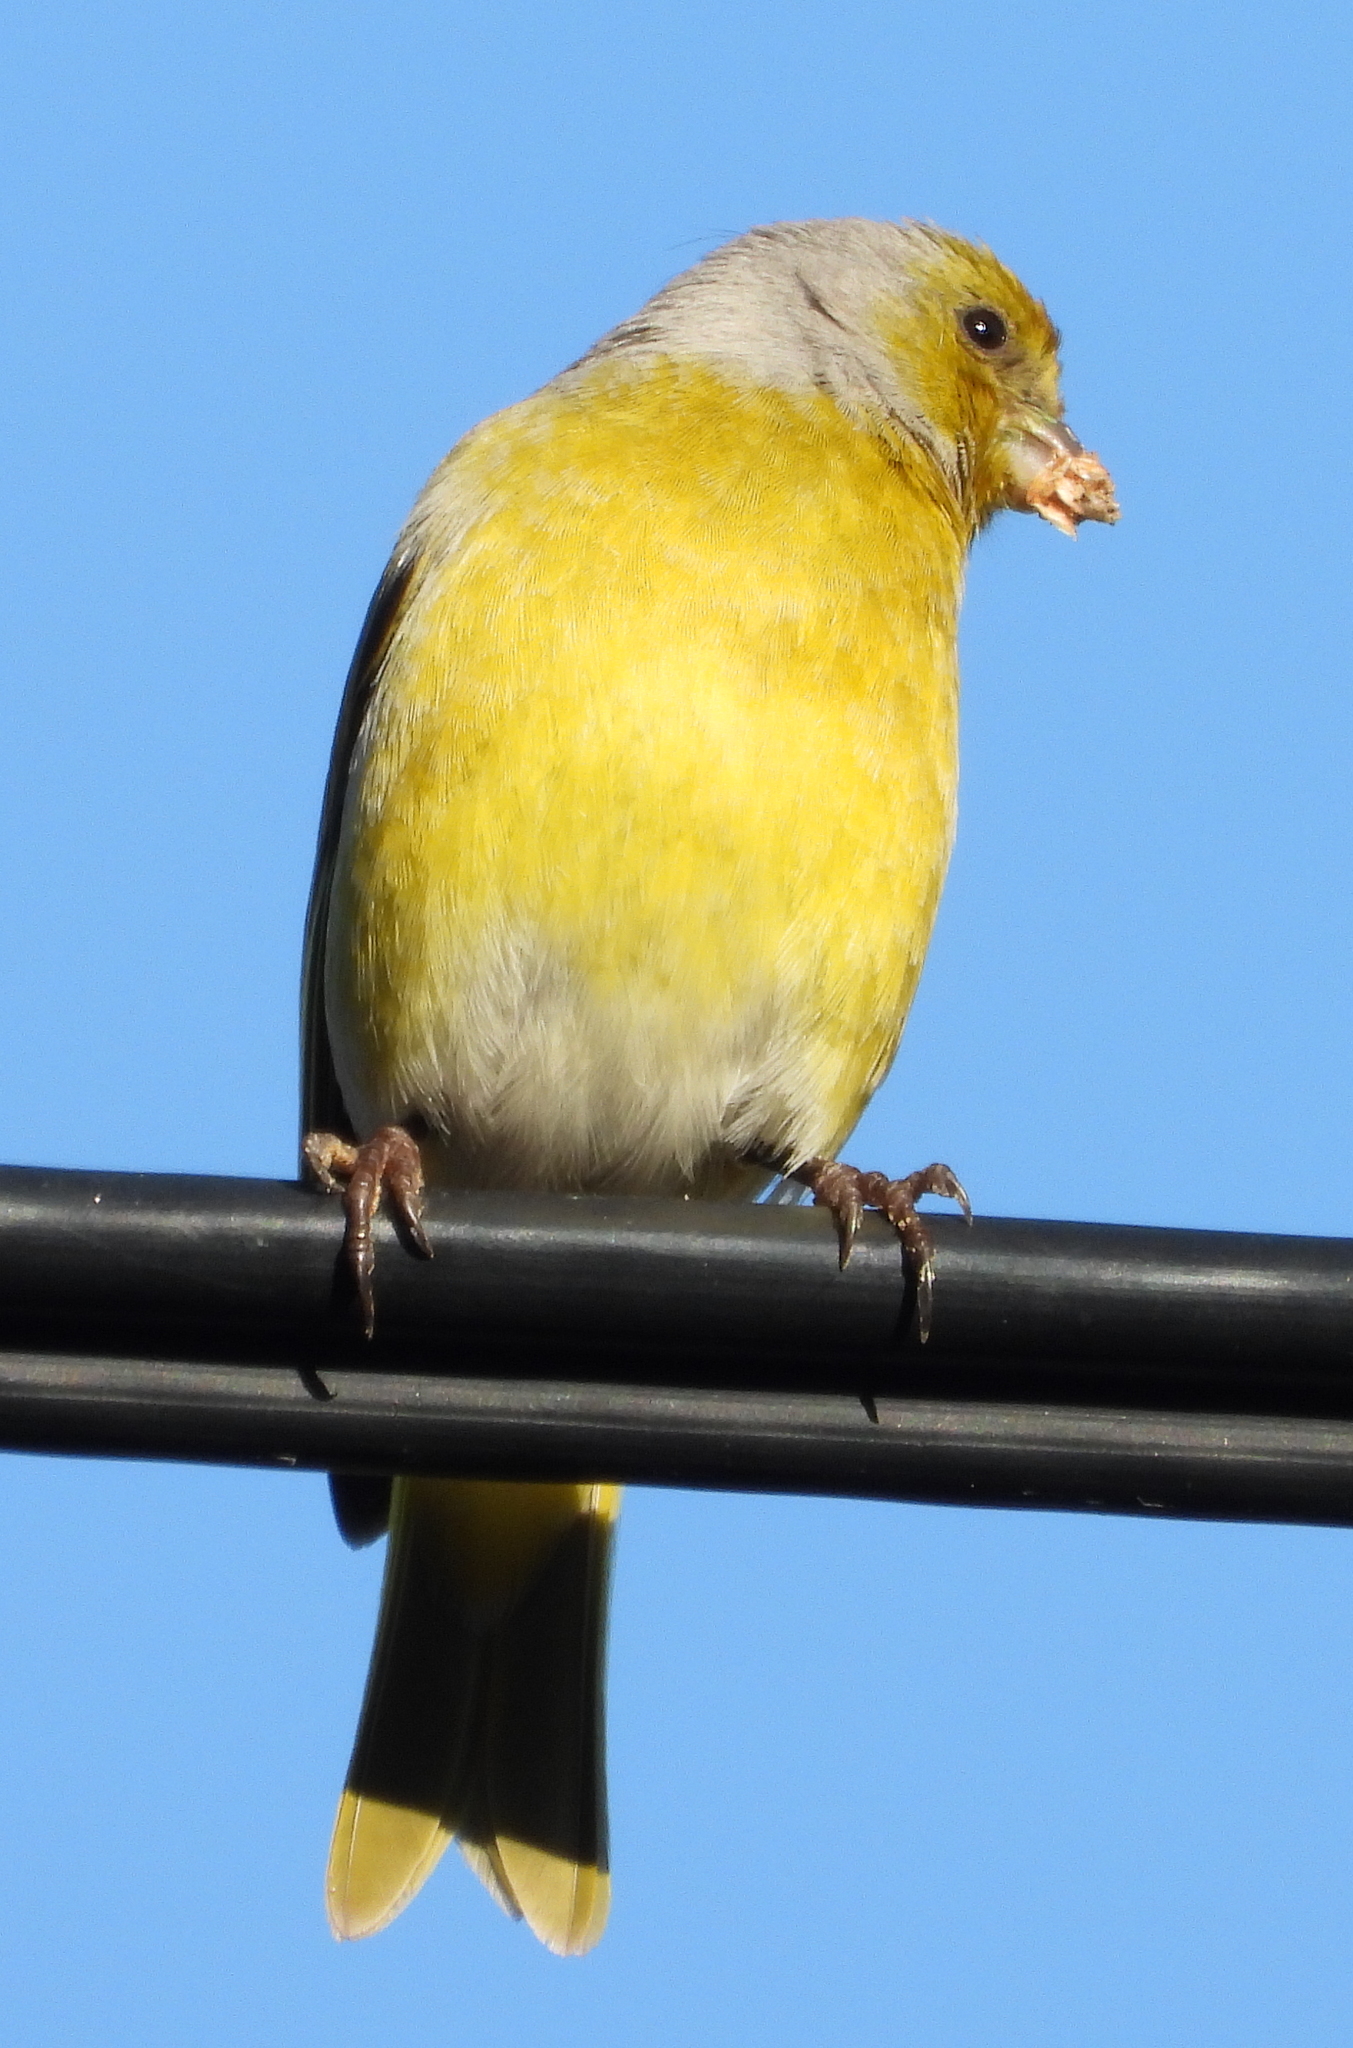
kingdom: Animalia
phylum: Chordata
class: Aves
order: Passeriformes
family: Fringillidae
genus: Serinus
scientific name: Serinus canicollis
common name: Cape canary
